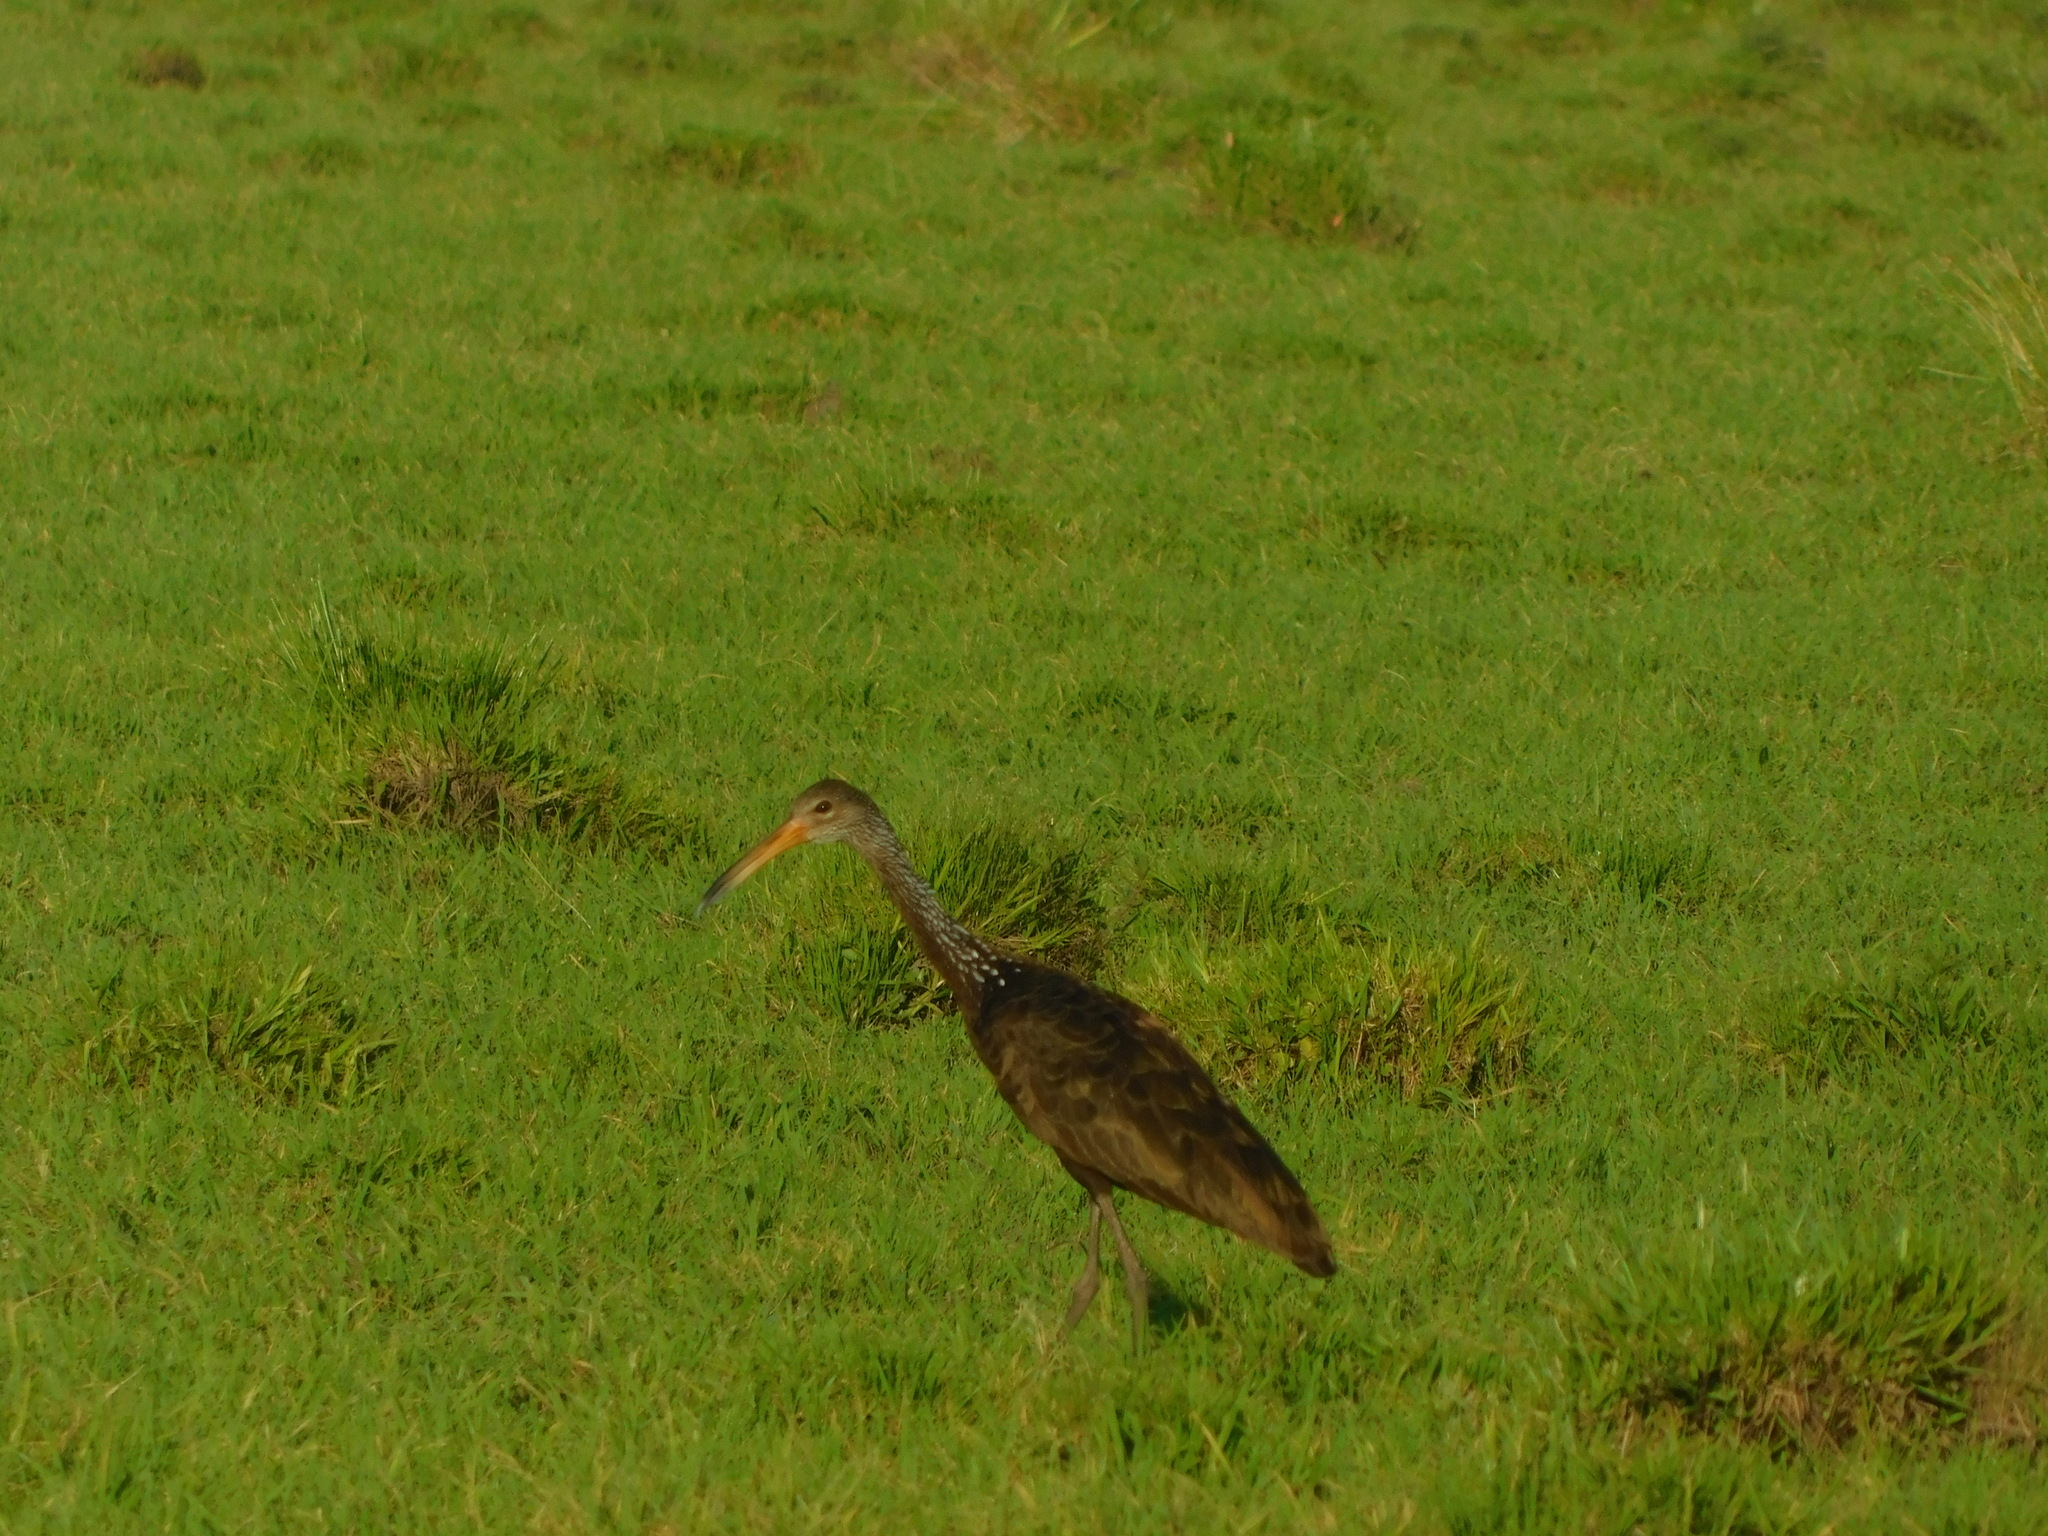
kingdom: Animalia
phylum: Chordata
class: Aves
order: Gruiformes
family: Aramidae
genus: Aramus
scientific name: Aramus guarauna
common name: Limpkin
